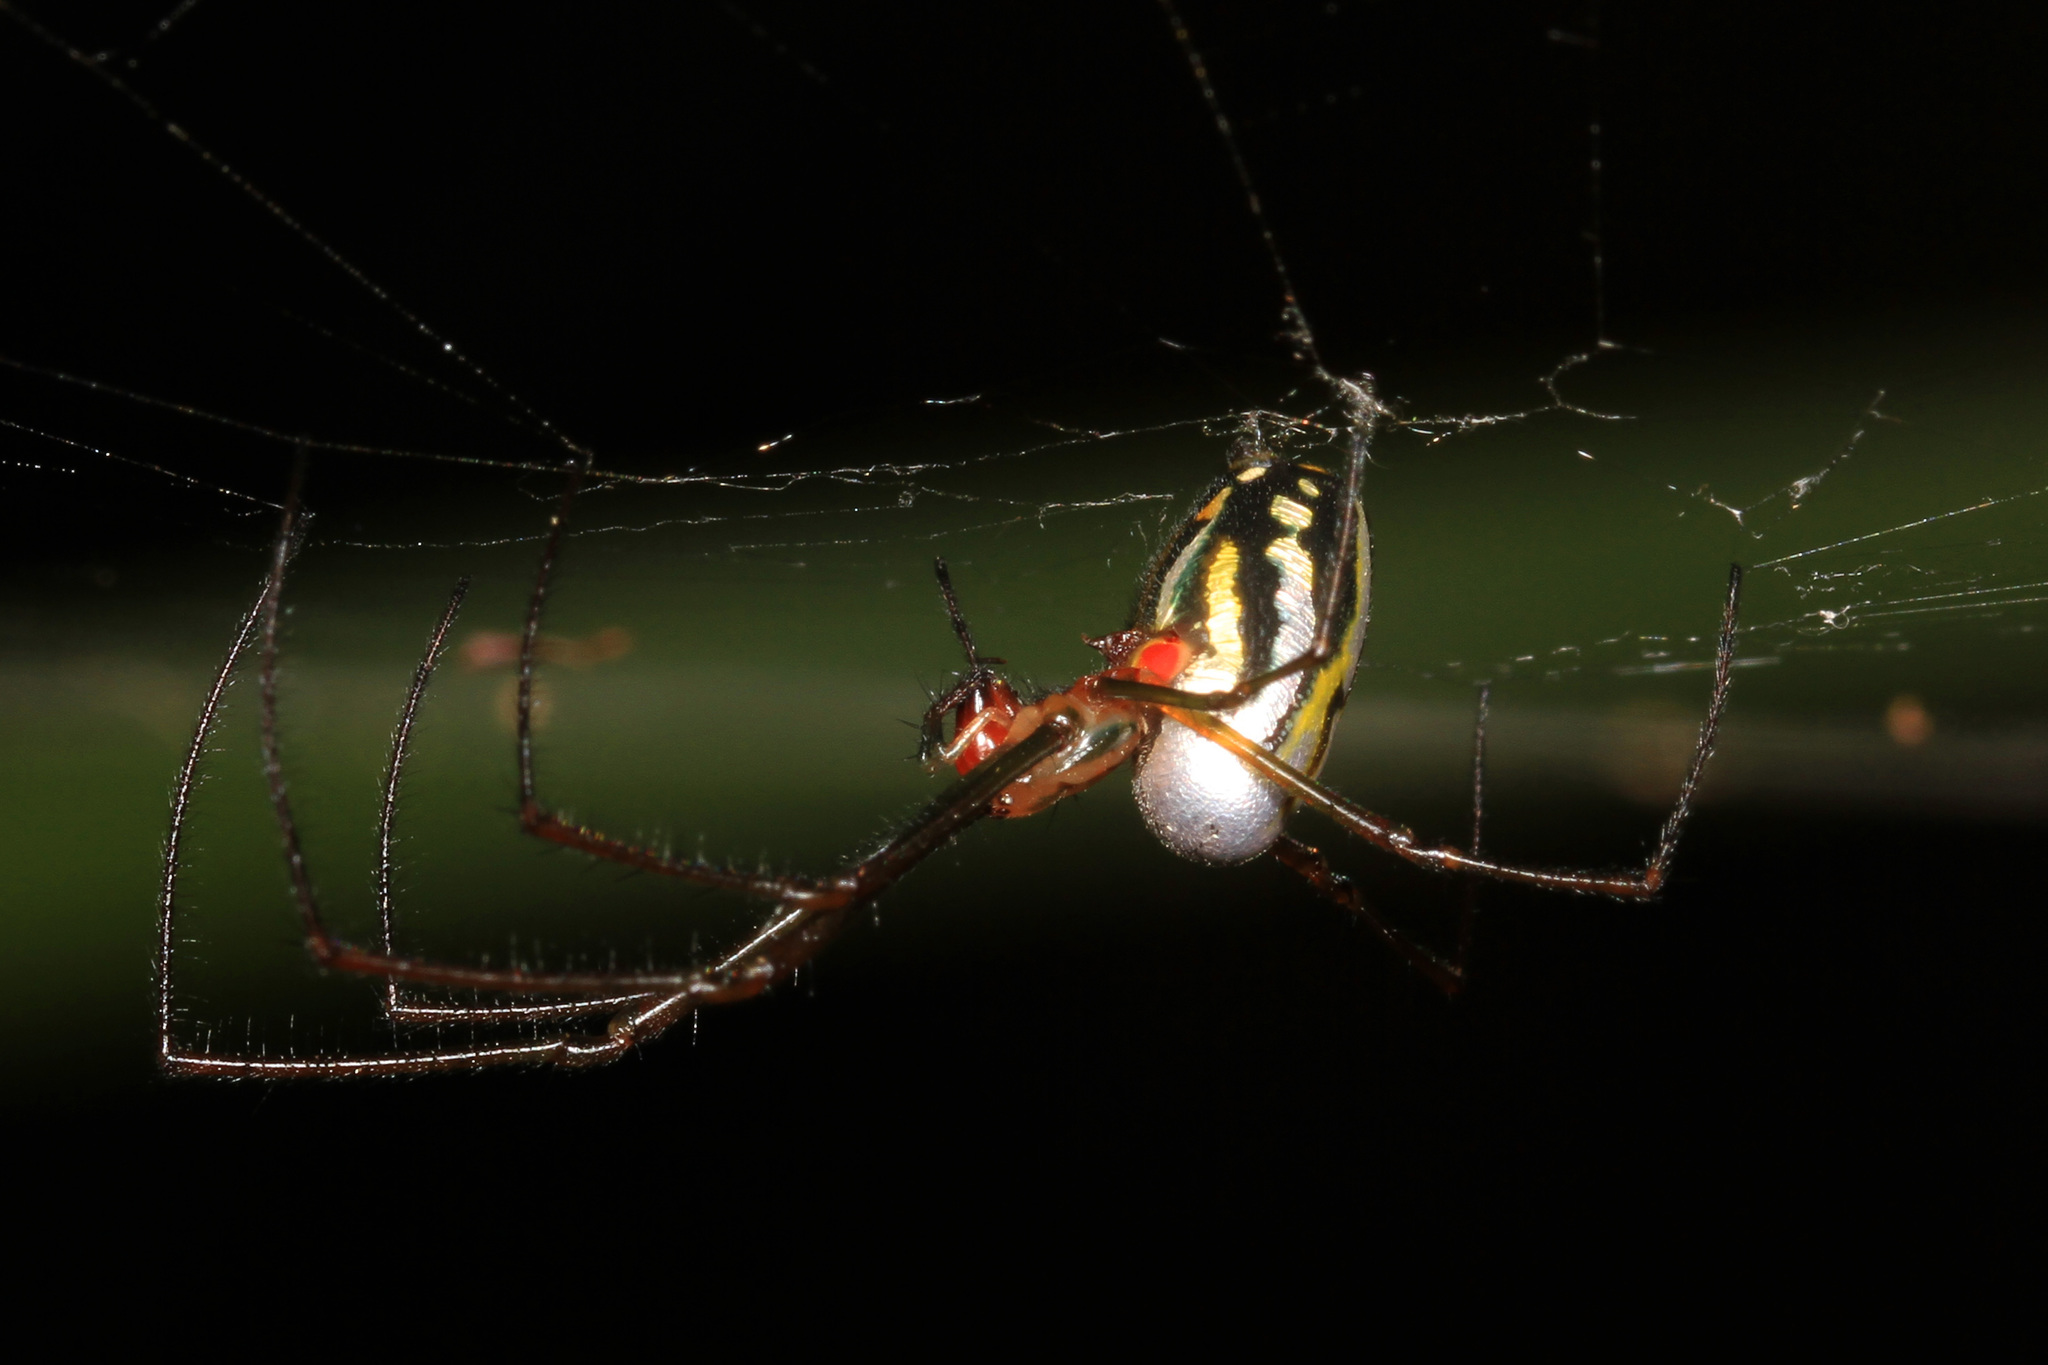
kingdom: Animalia
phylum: Arthropoda
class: Arachnida
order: Araneae
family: Tetragnathidae
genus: Leucauge
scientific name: Leucauge argyra
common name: Longjawed orb weavers
